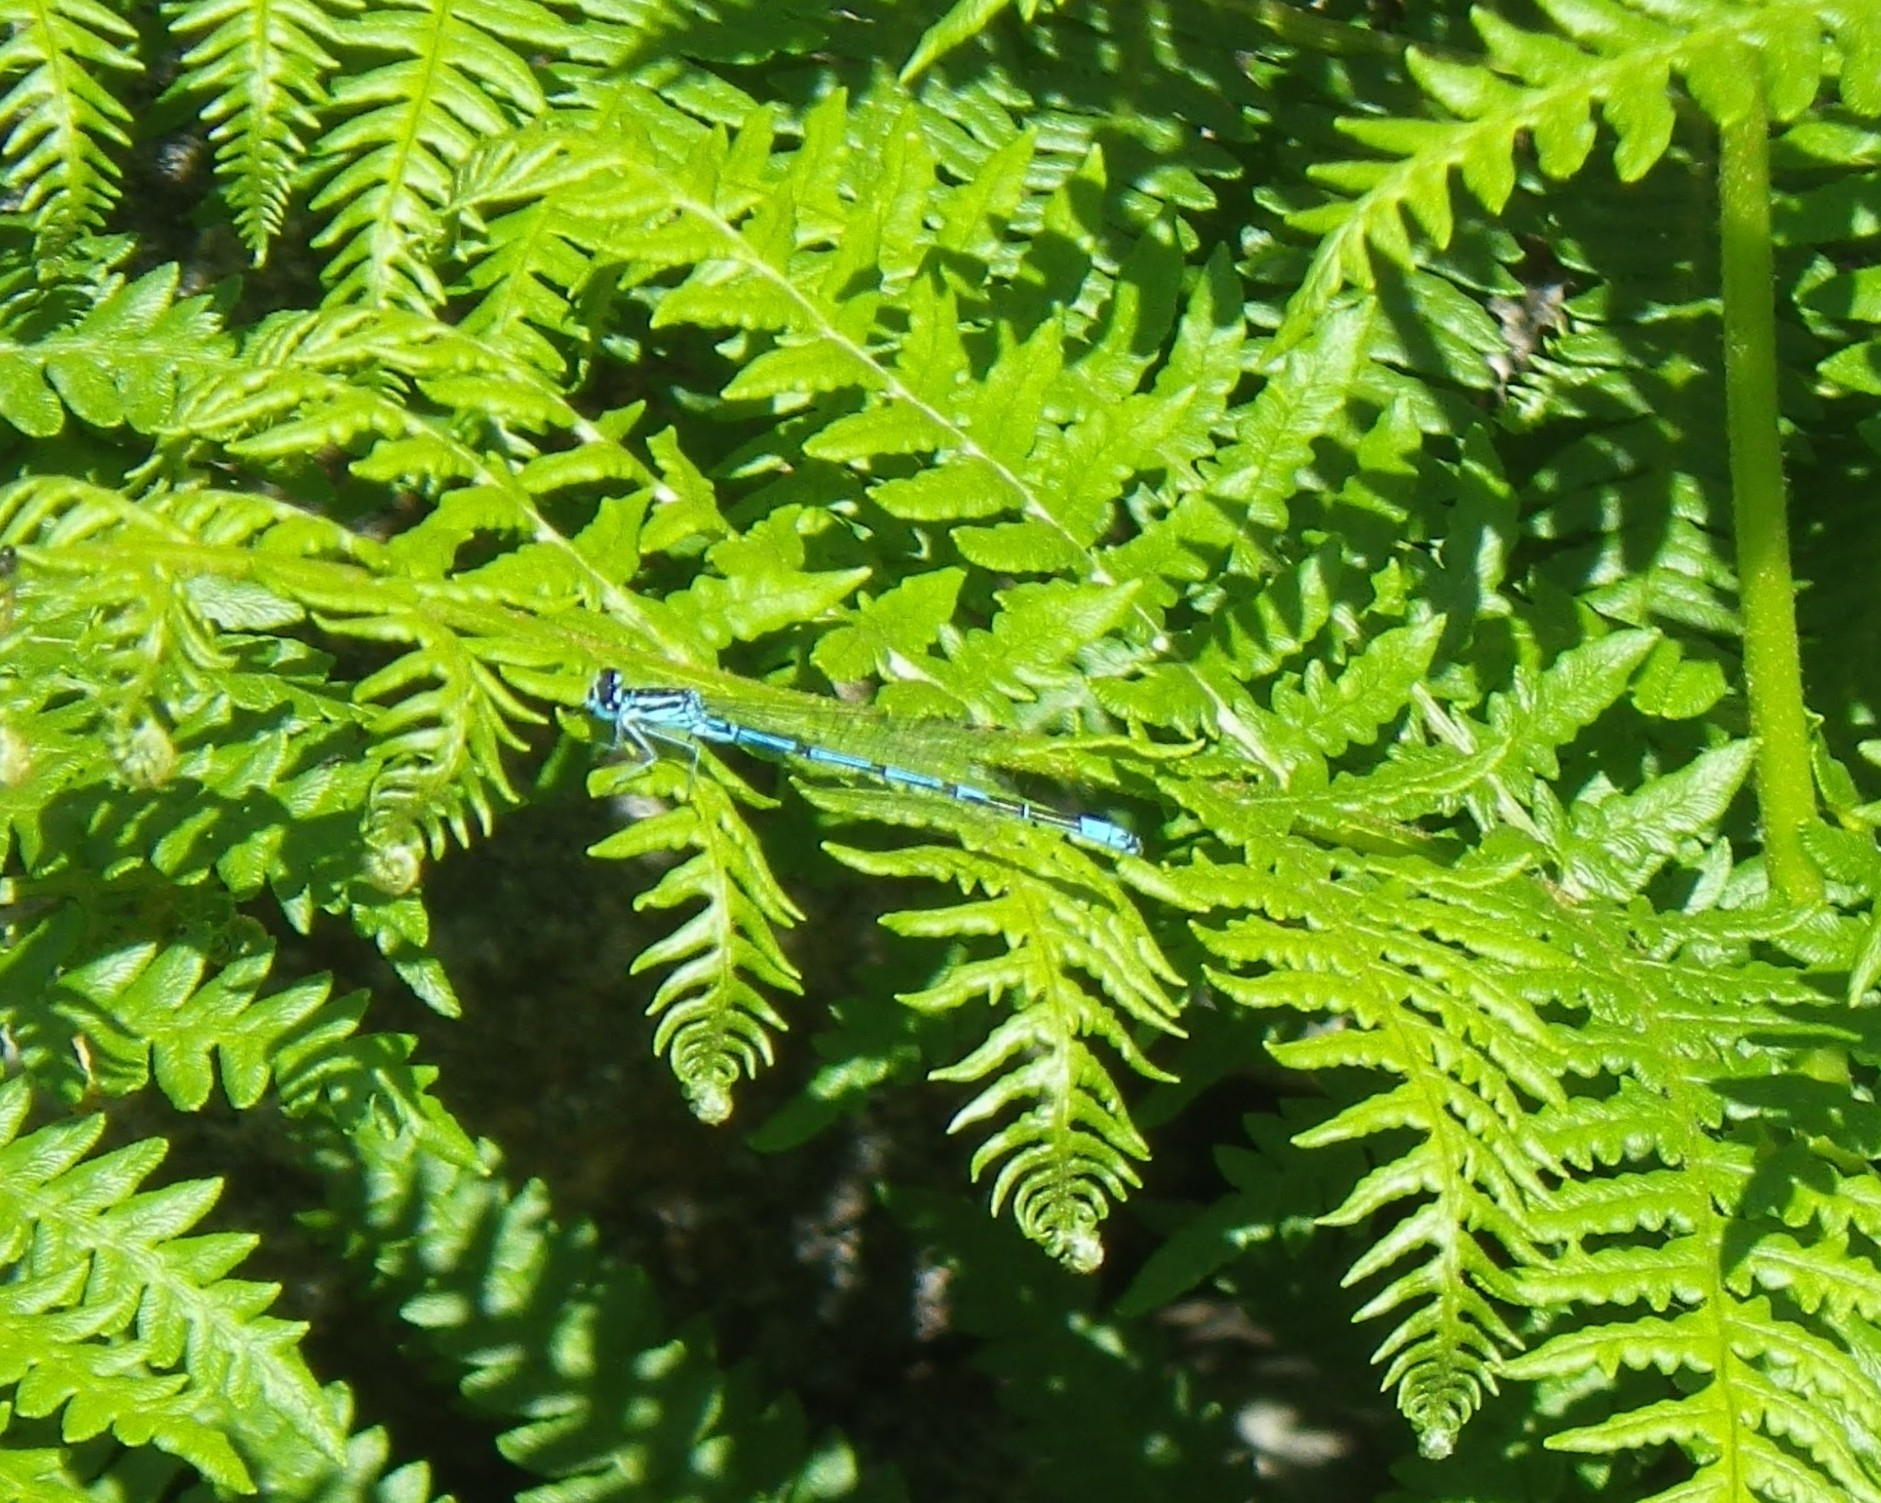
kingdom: Animalia
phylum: Arthropoda
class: Insecta
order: Odonata
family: Coenagrionidae
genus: Coenagrion
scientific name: Coenagrion puella
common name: Azure damselfly
